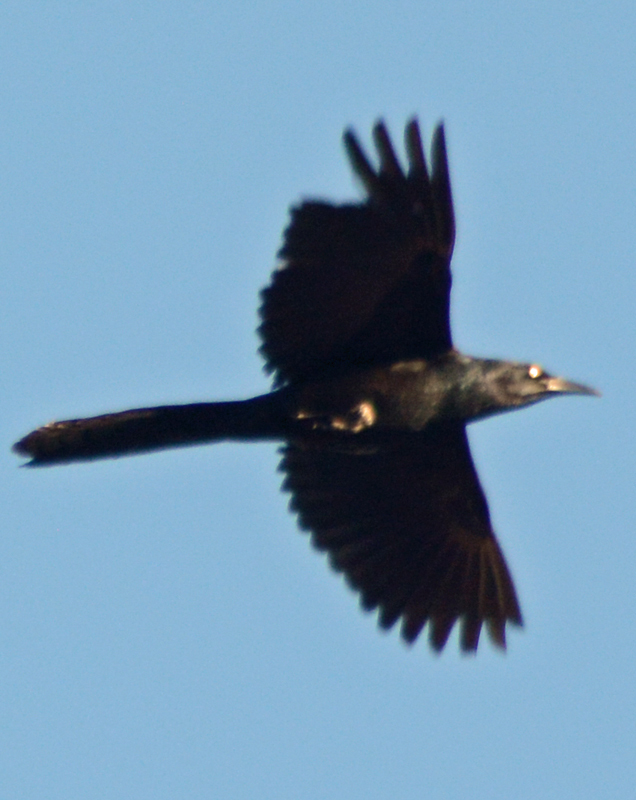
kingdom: Animalia
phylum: Chordata
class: Aves
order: Passeriformes
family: Icteridae
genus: Quiscalus
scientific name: Quiscalus mexicanus
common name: Great-tailed grackle
